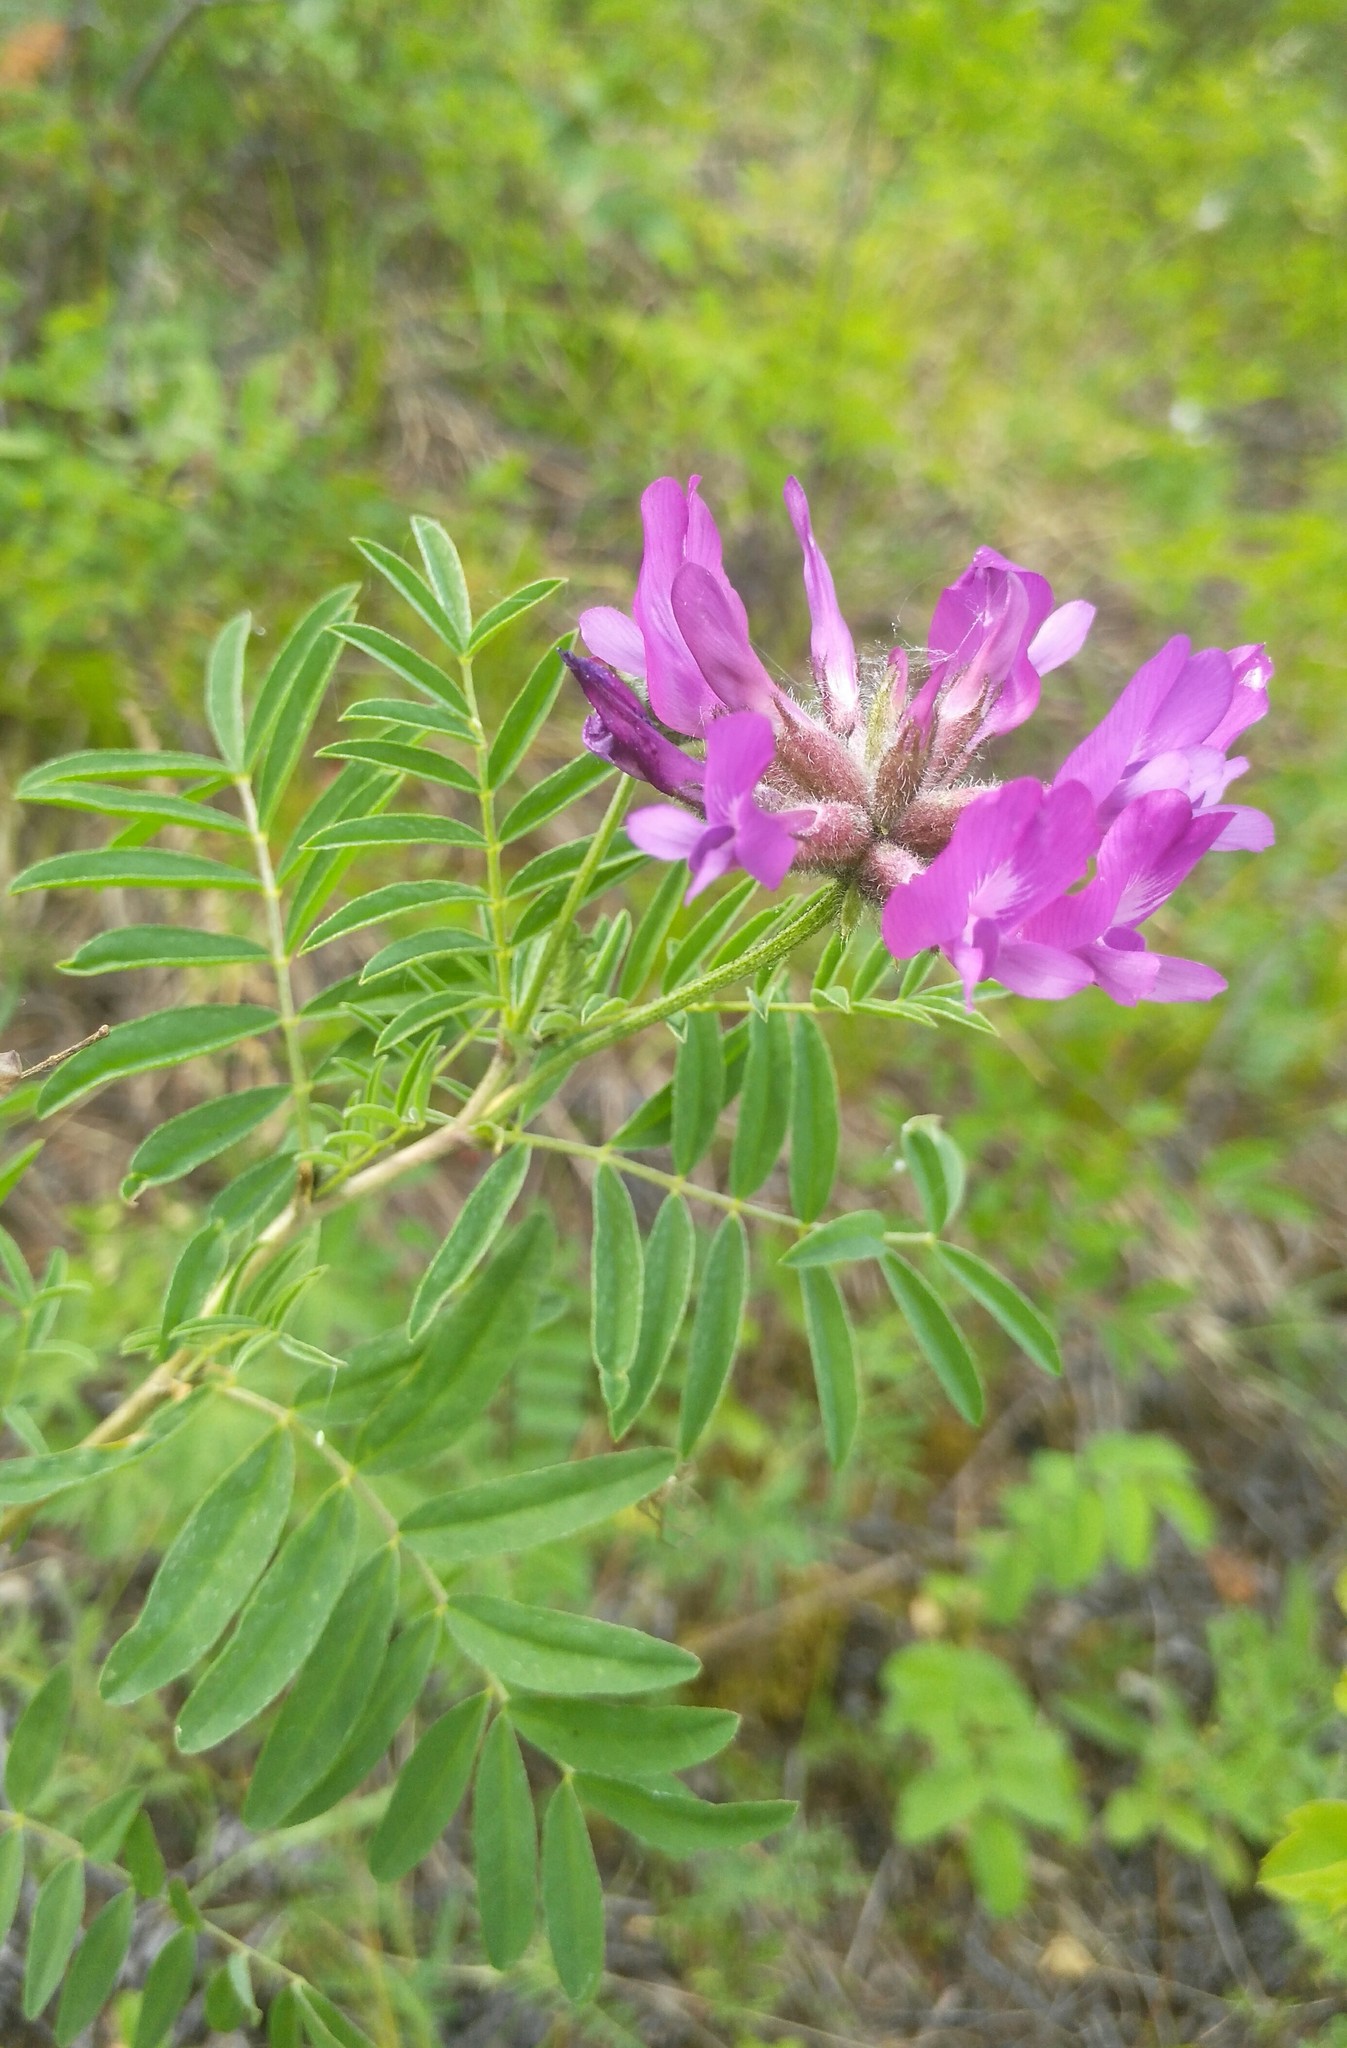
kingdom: Plantae
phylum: Tracheophyta
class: Magnoliopsida
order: Fabales
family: Fabaceae
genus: Astragalus
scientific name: Astragalus syriacus
